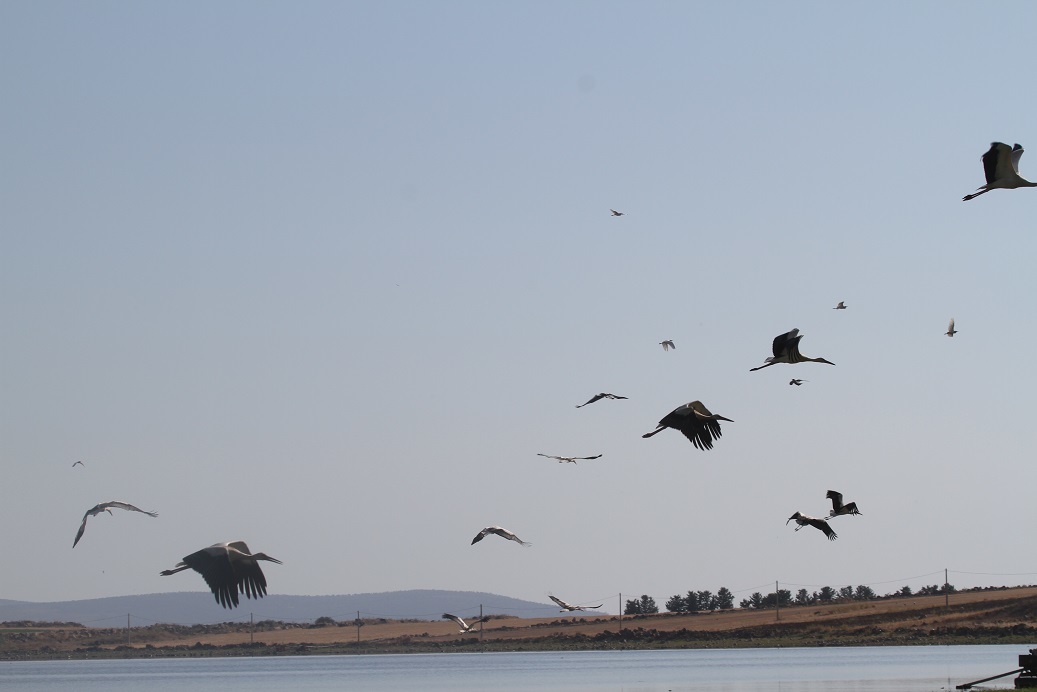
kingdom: Animalia
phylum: Chordata
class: Aves
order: Ciconiiformes
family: Ciconiidae
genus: Ciconia
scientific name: Ciconia ciconia
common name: White stork
